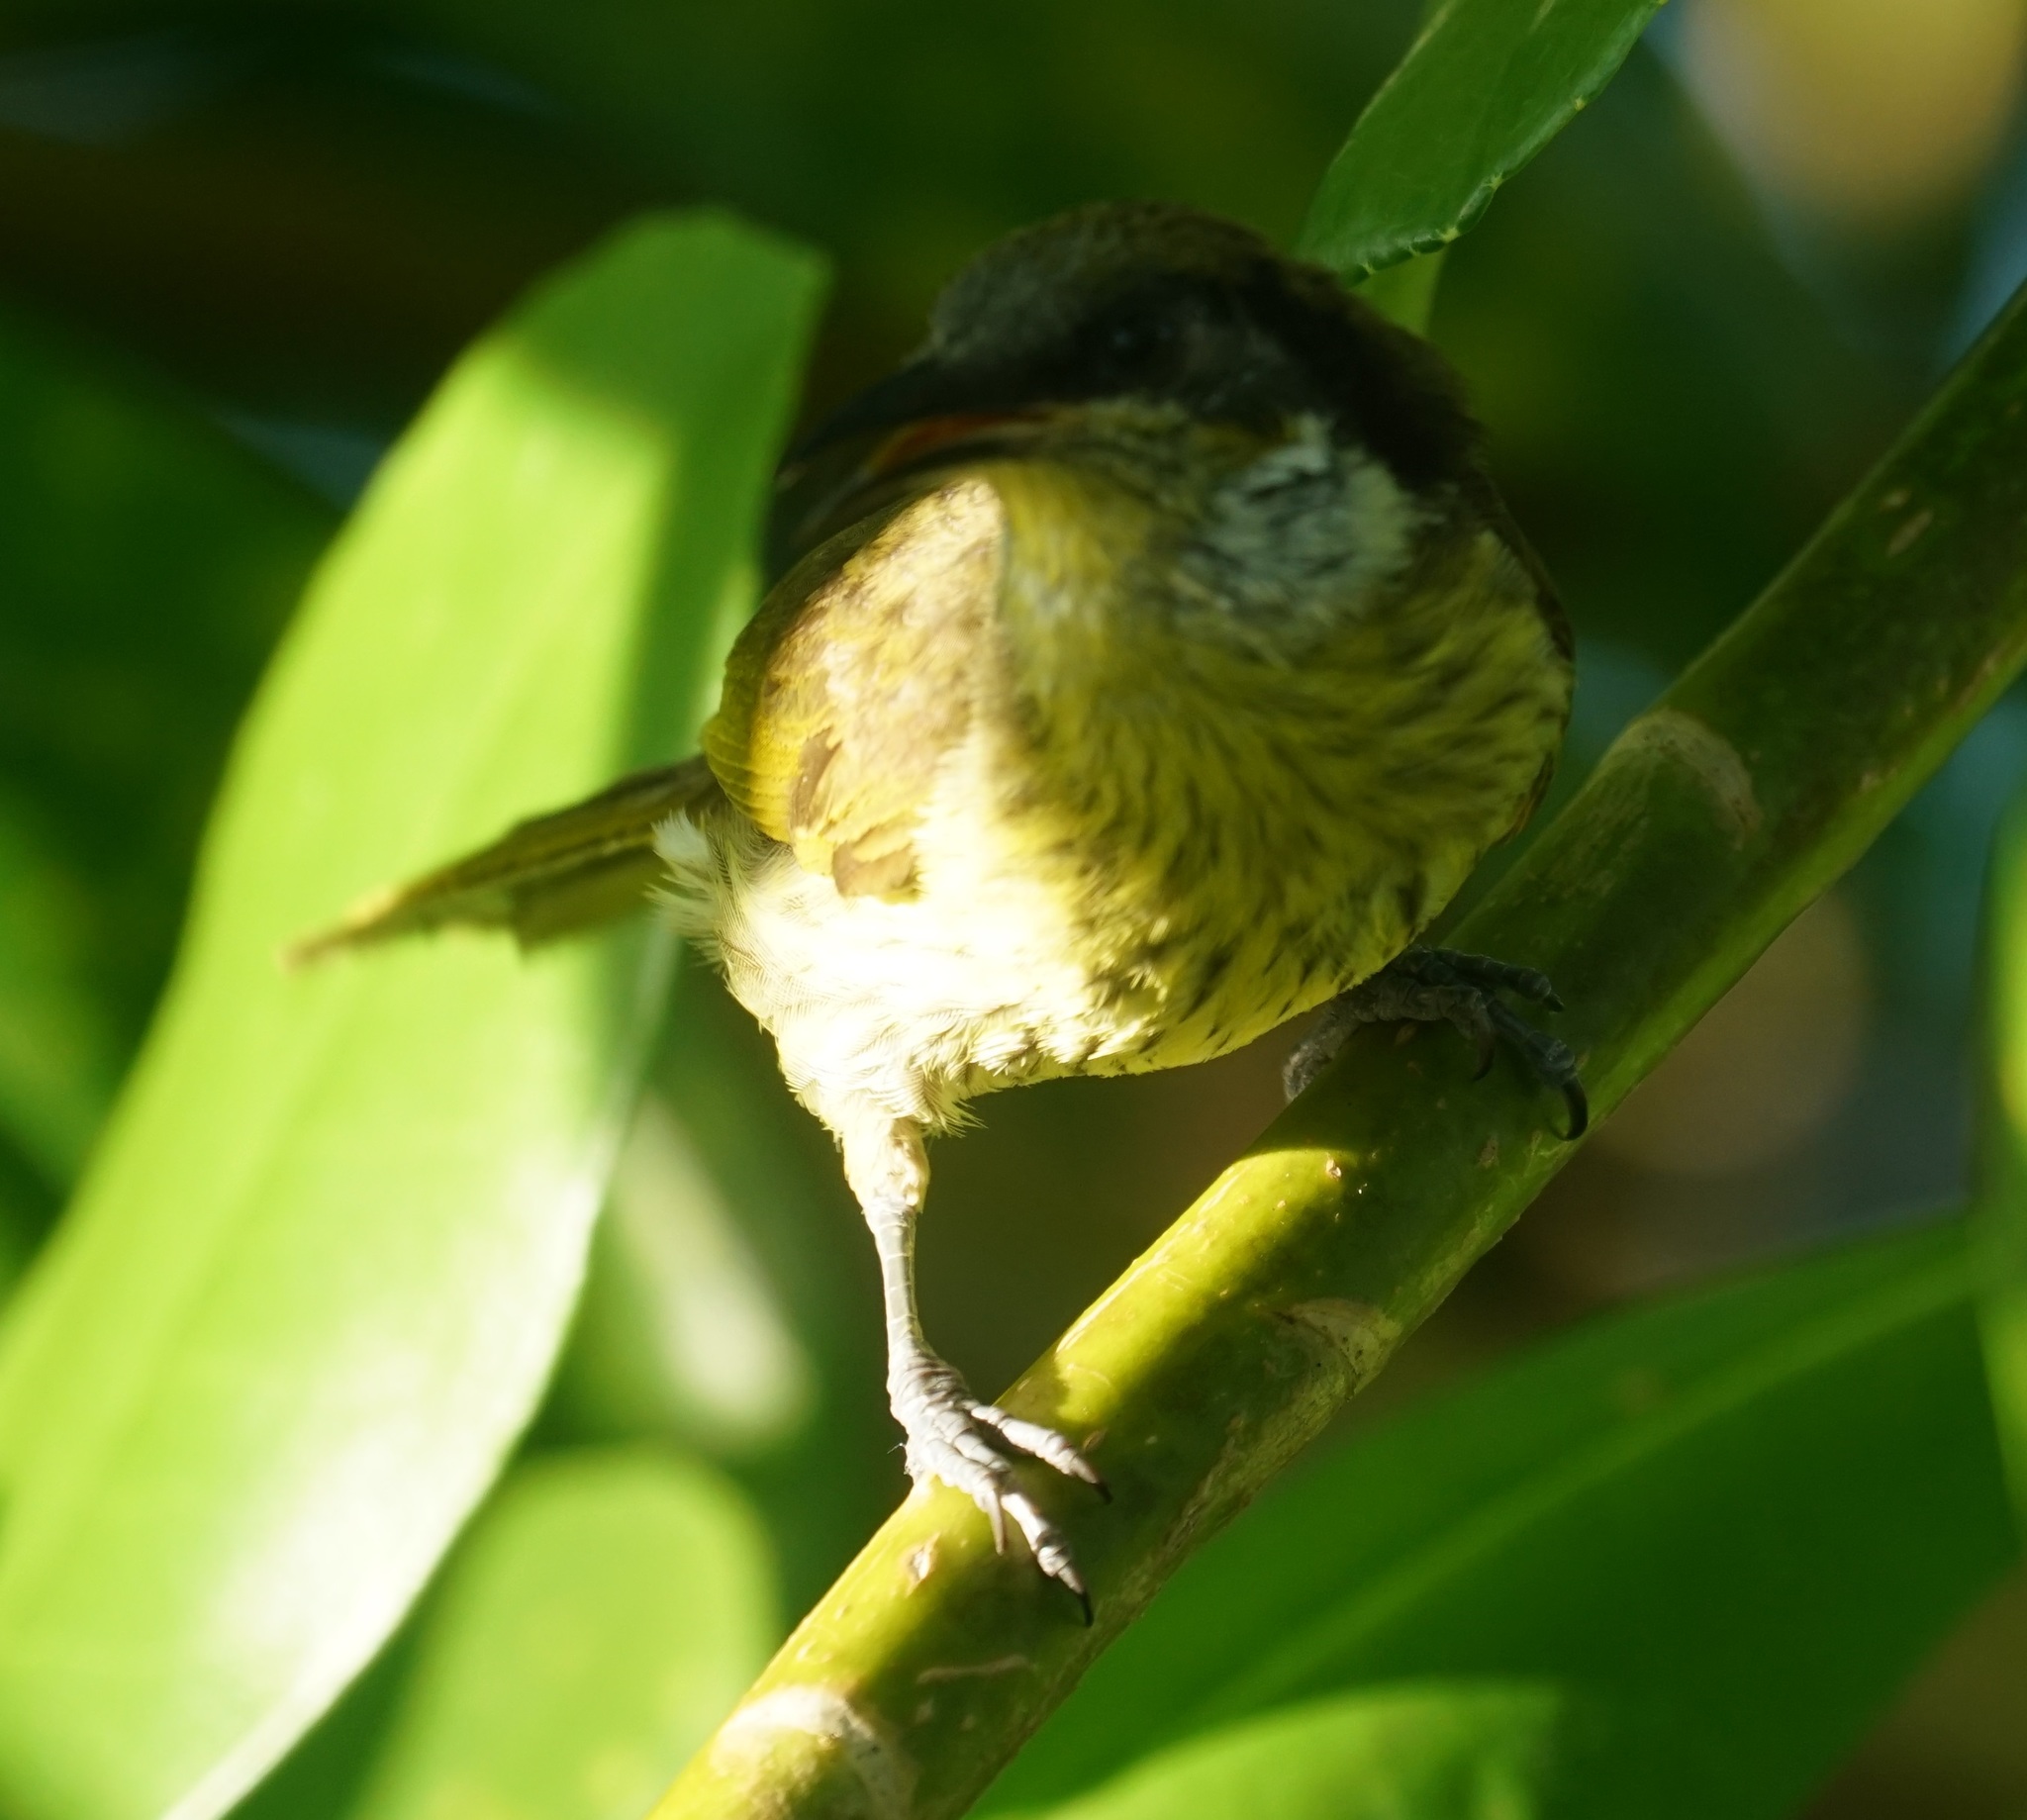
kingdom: Animalia
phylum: Chordata
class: Aves
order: Passeriformes
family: Meliphagidae
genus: Gavicalis
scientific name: Gavicalis versicolor
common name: Varied honeyeater
